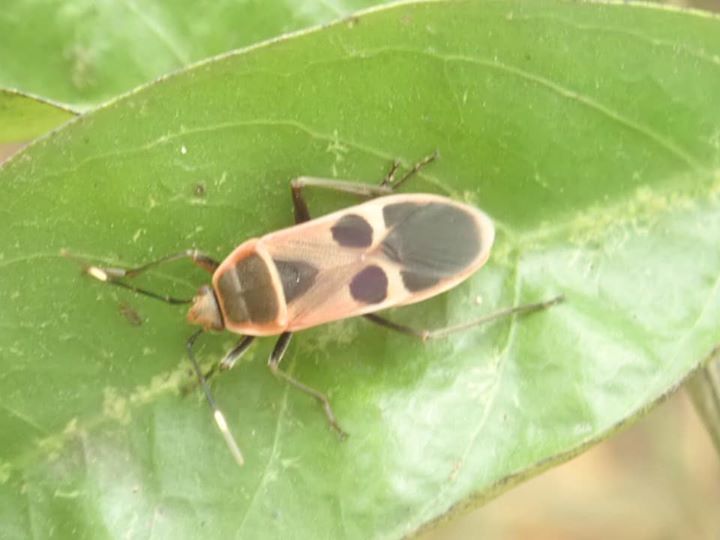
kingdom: Animalia
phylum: Arthropoda
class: Insecta
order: Hemiptera
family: Largidae
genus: Physopelta
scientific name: Physopelta gutta
